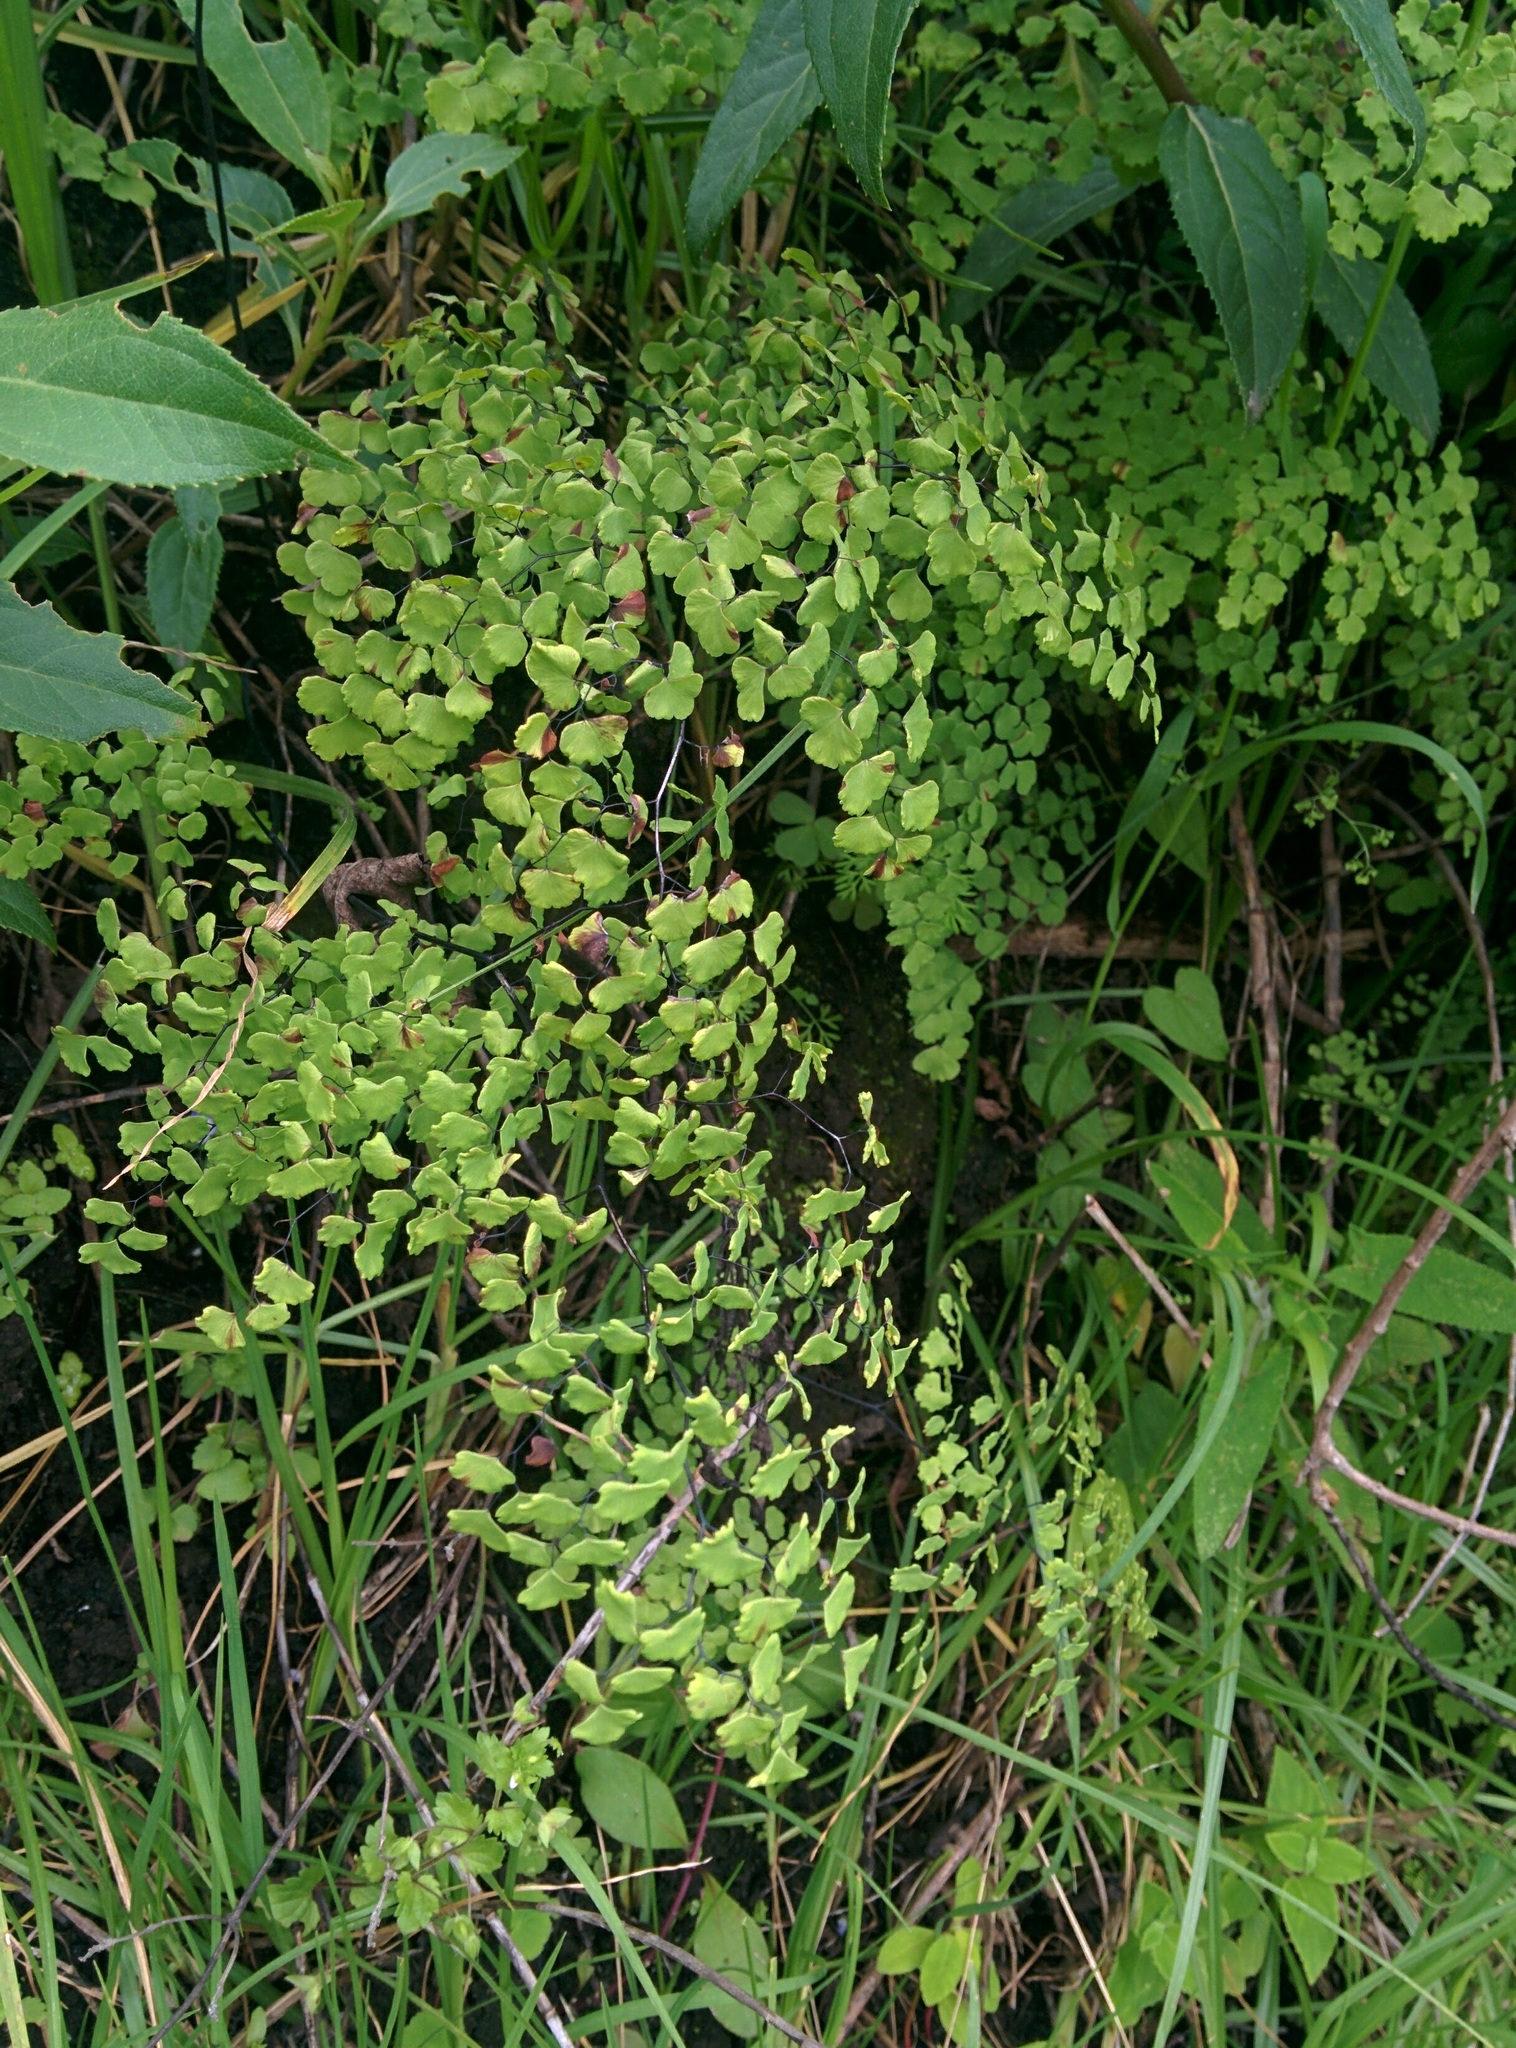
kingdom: Plantae
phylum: Tracheophyta
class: Polypodiopsida
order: Polypodiales
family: Pteridaceae
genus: Adiantum
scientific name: Adiantum poiretii
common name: Mexican maidenhair
